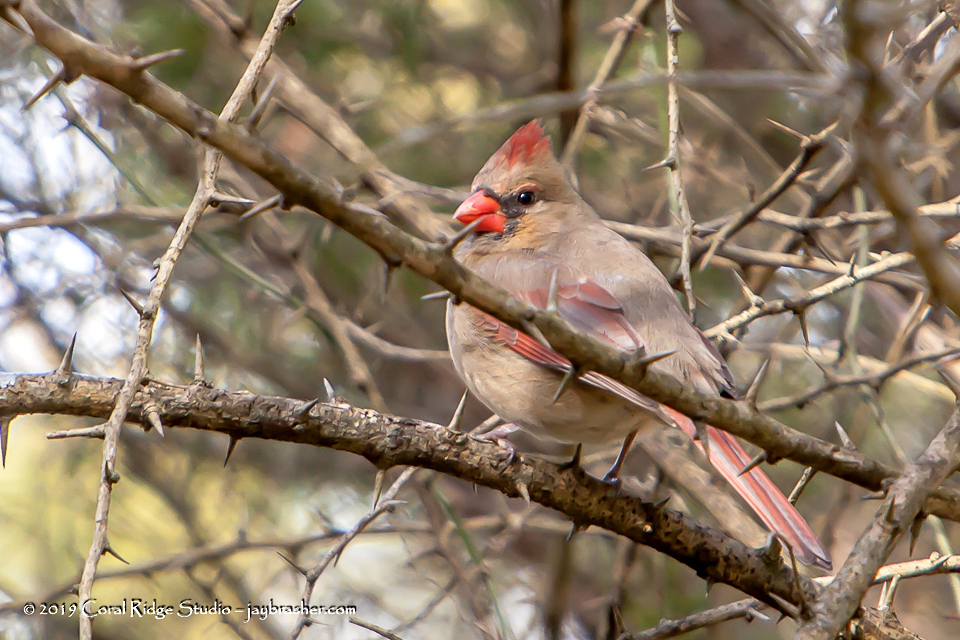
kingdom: Animalia
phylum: Chordata
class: Aves
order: Passeriformes
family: Cardinalidae
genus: Cardinalis
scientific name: Cardinalis cardinalis
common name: Northern cardinal
